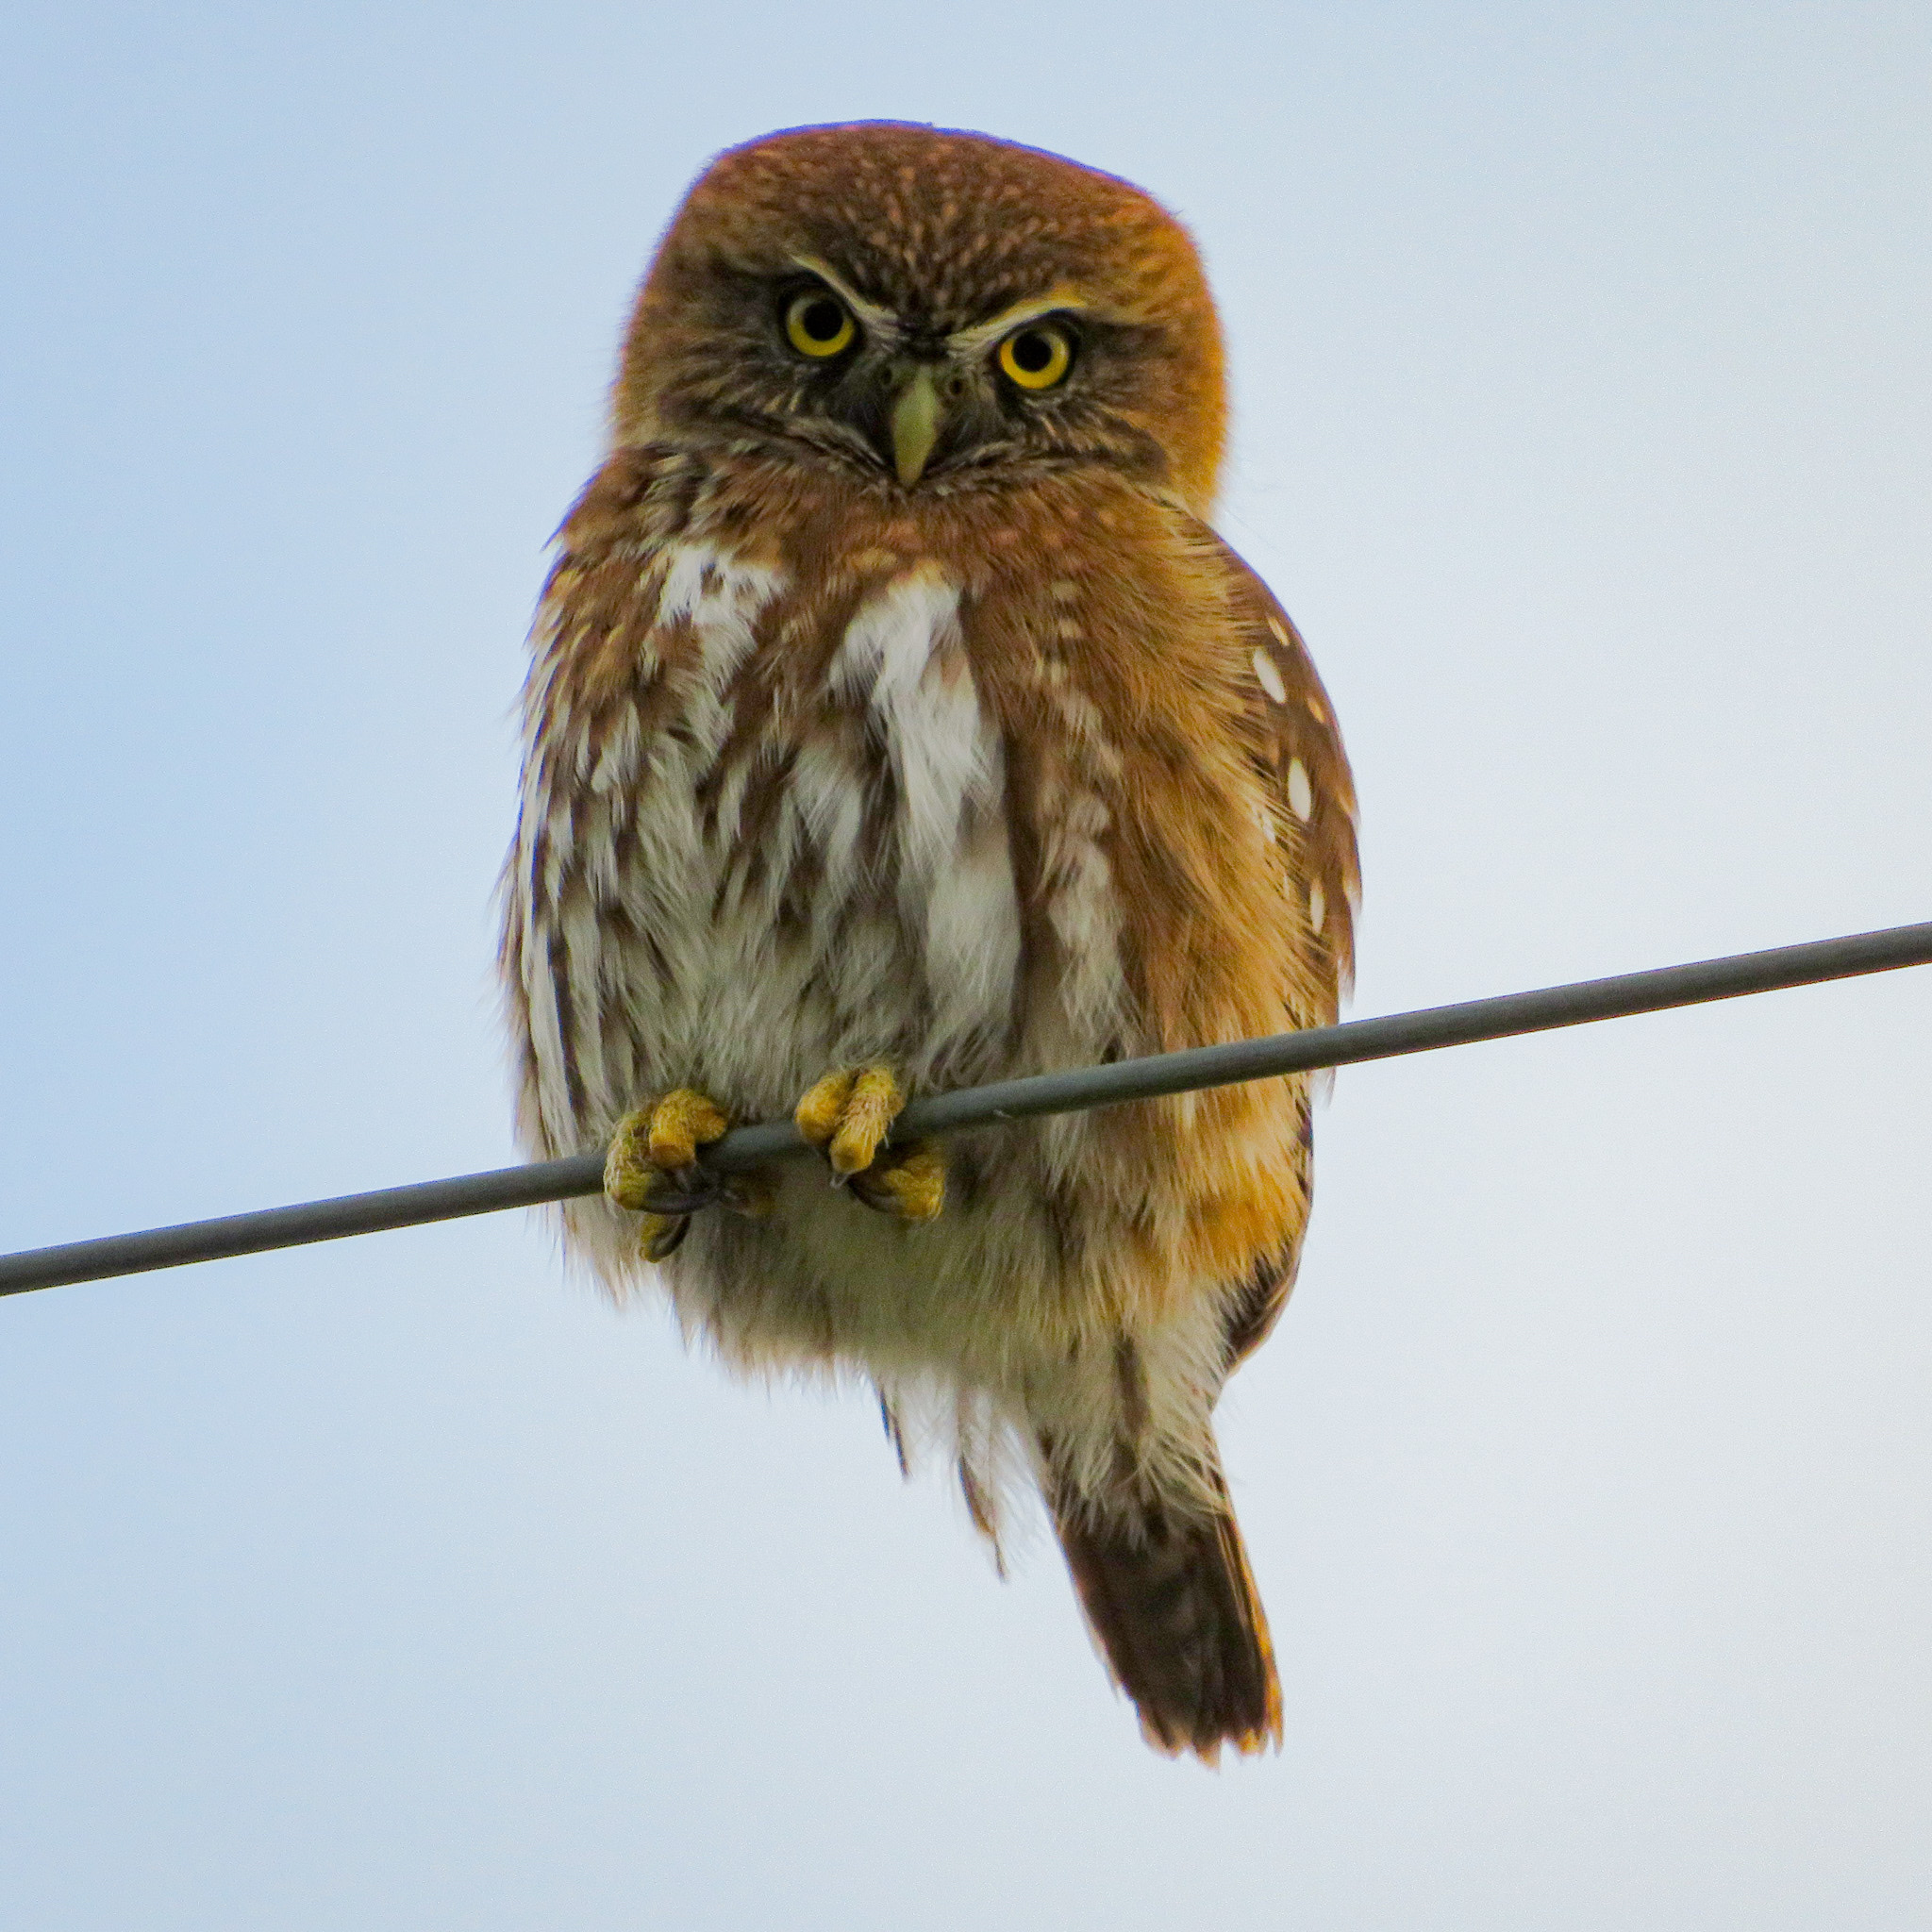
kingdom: Animalia
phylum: Chordata
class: Aves
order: Strigiformes
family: Strigidae
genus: Glaucidium
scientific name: Glaucidium nana
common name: Austral pygmy-owl
